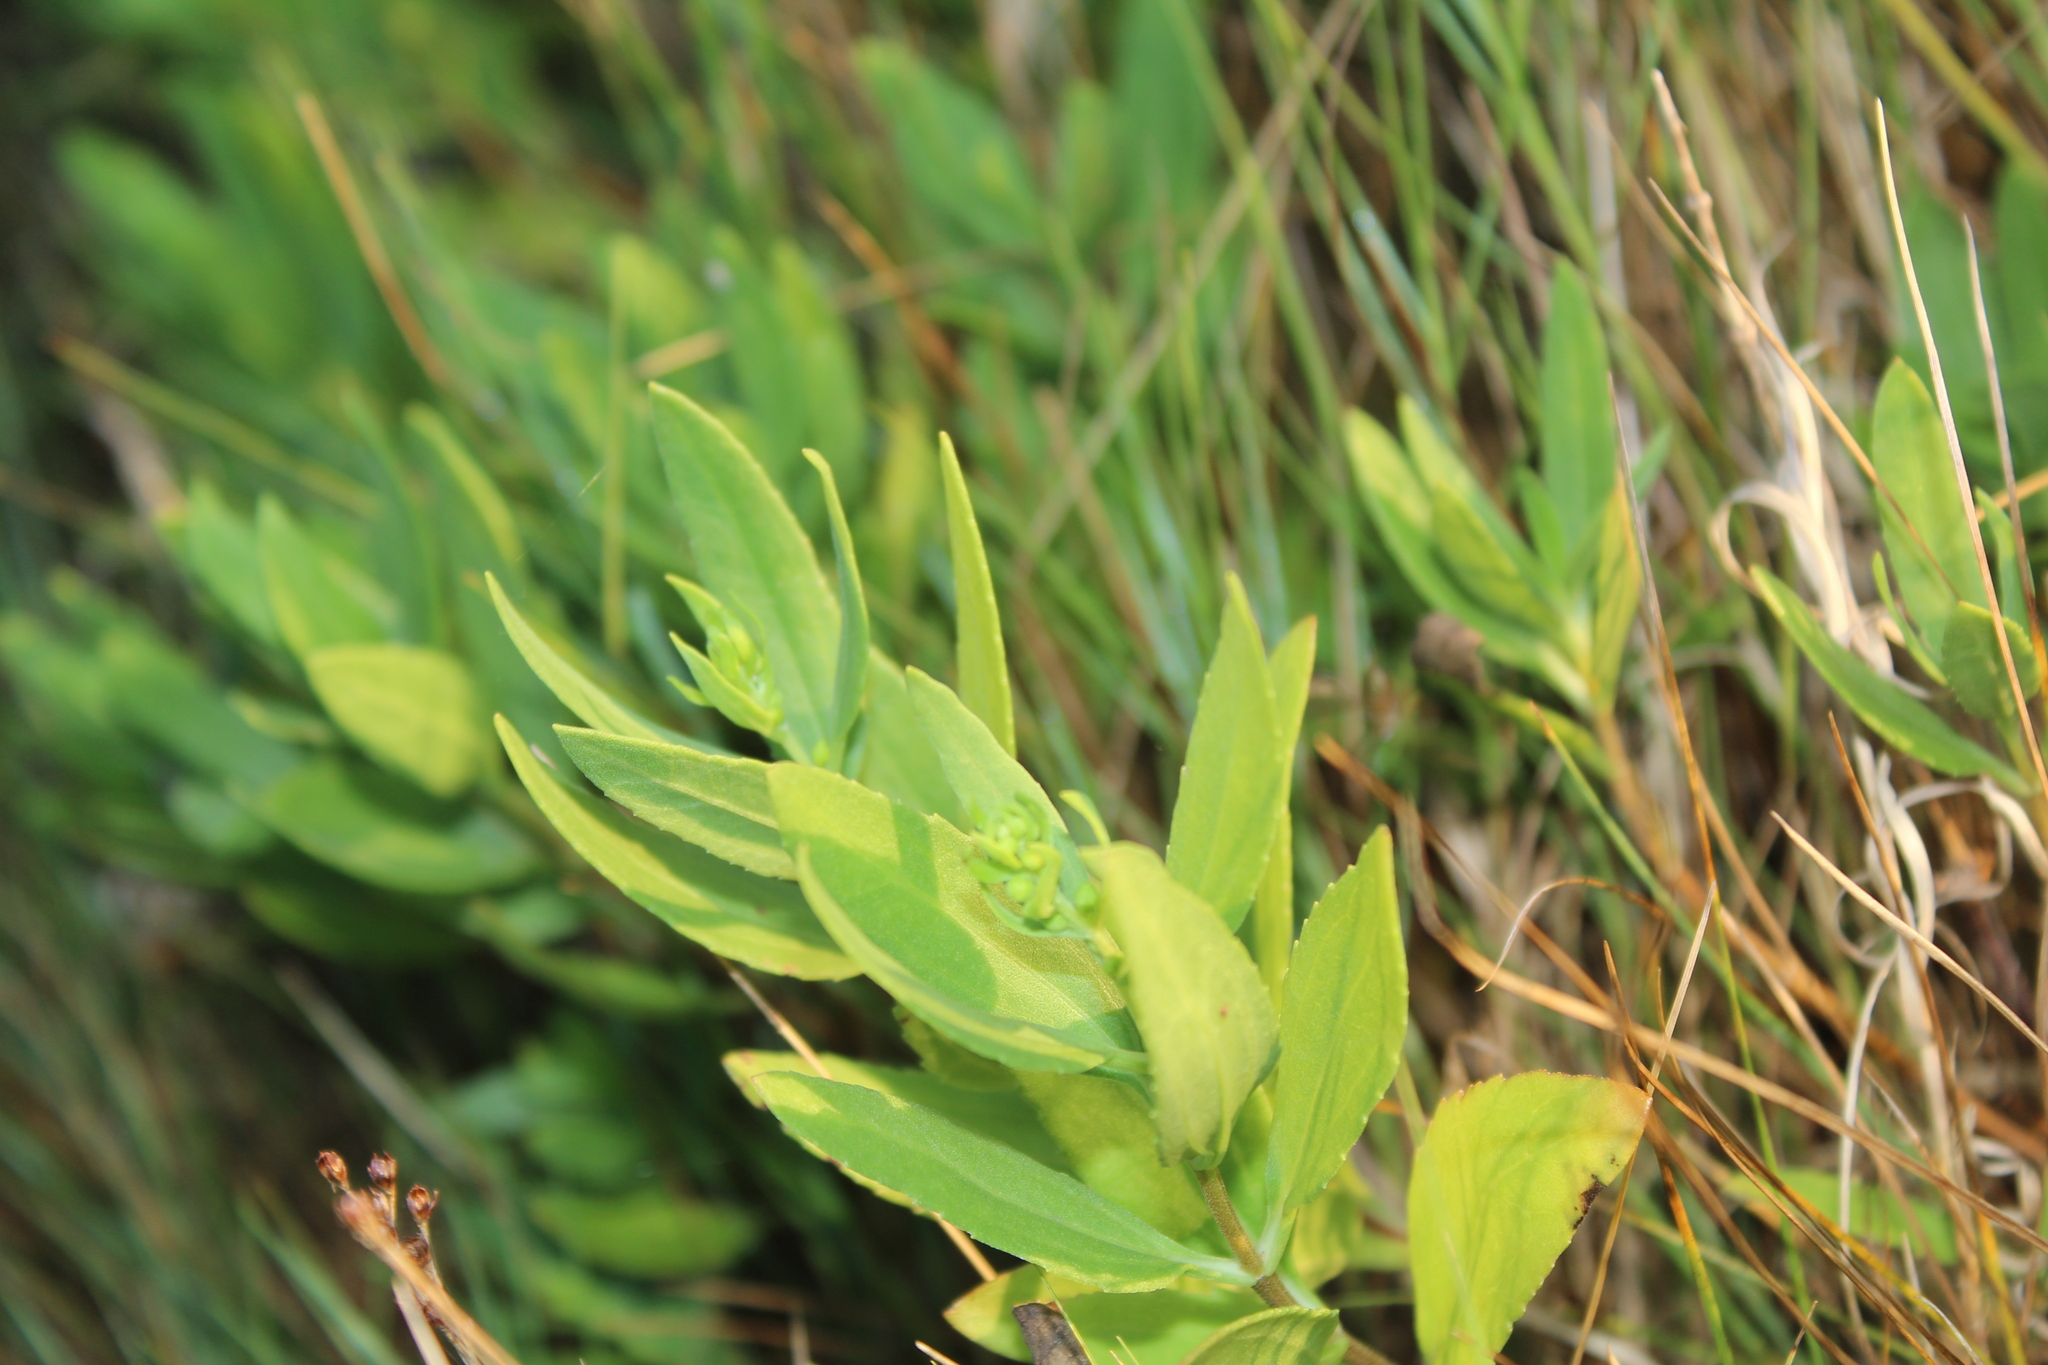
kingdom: Plantae
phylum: Tracheophyta
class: Magnoliopsida
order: Asterales
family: Asteraceae
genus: Iva
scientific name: Iva frutescens
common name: Big-leaved marsh-elder
